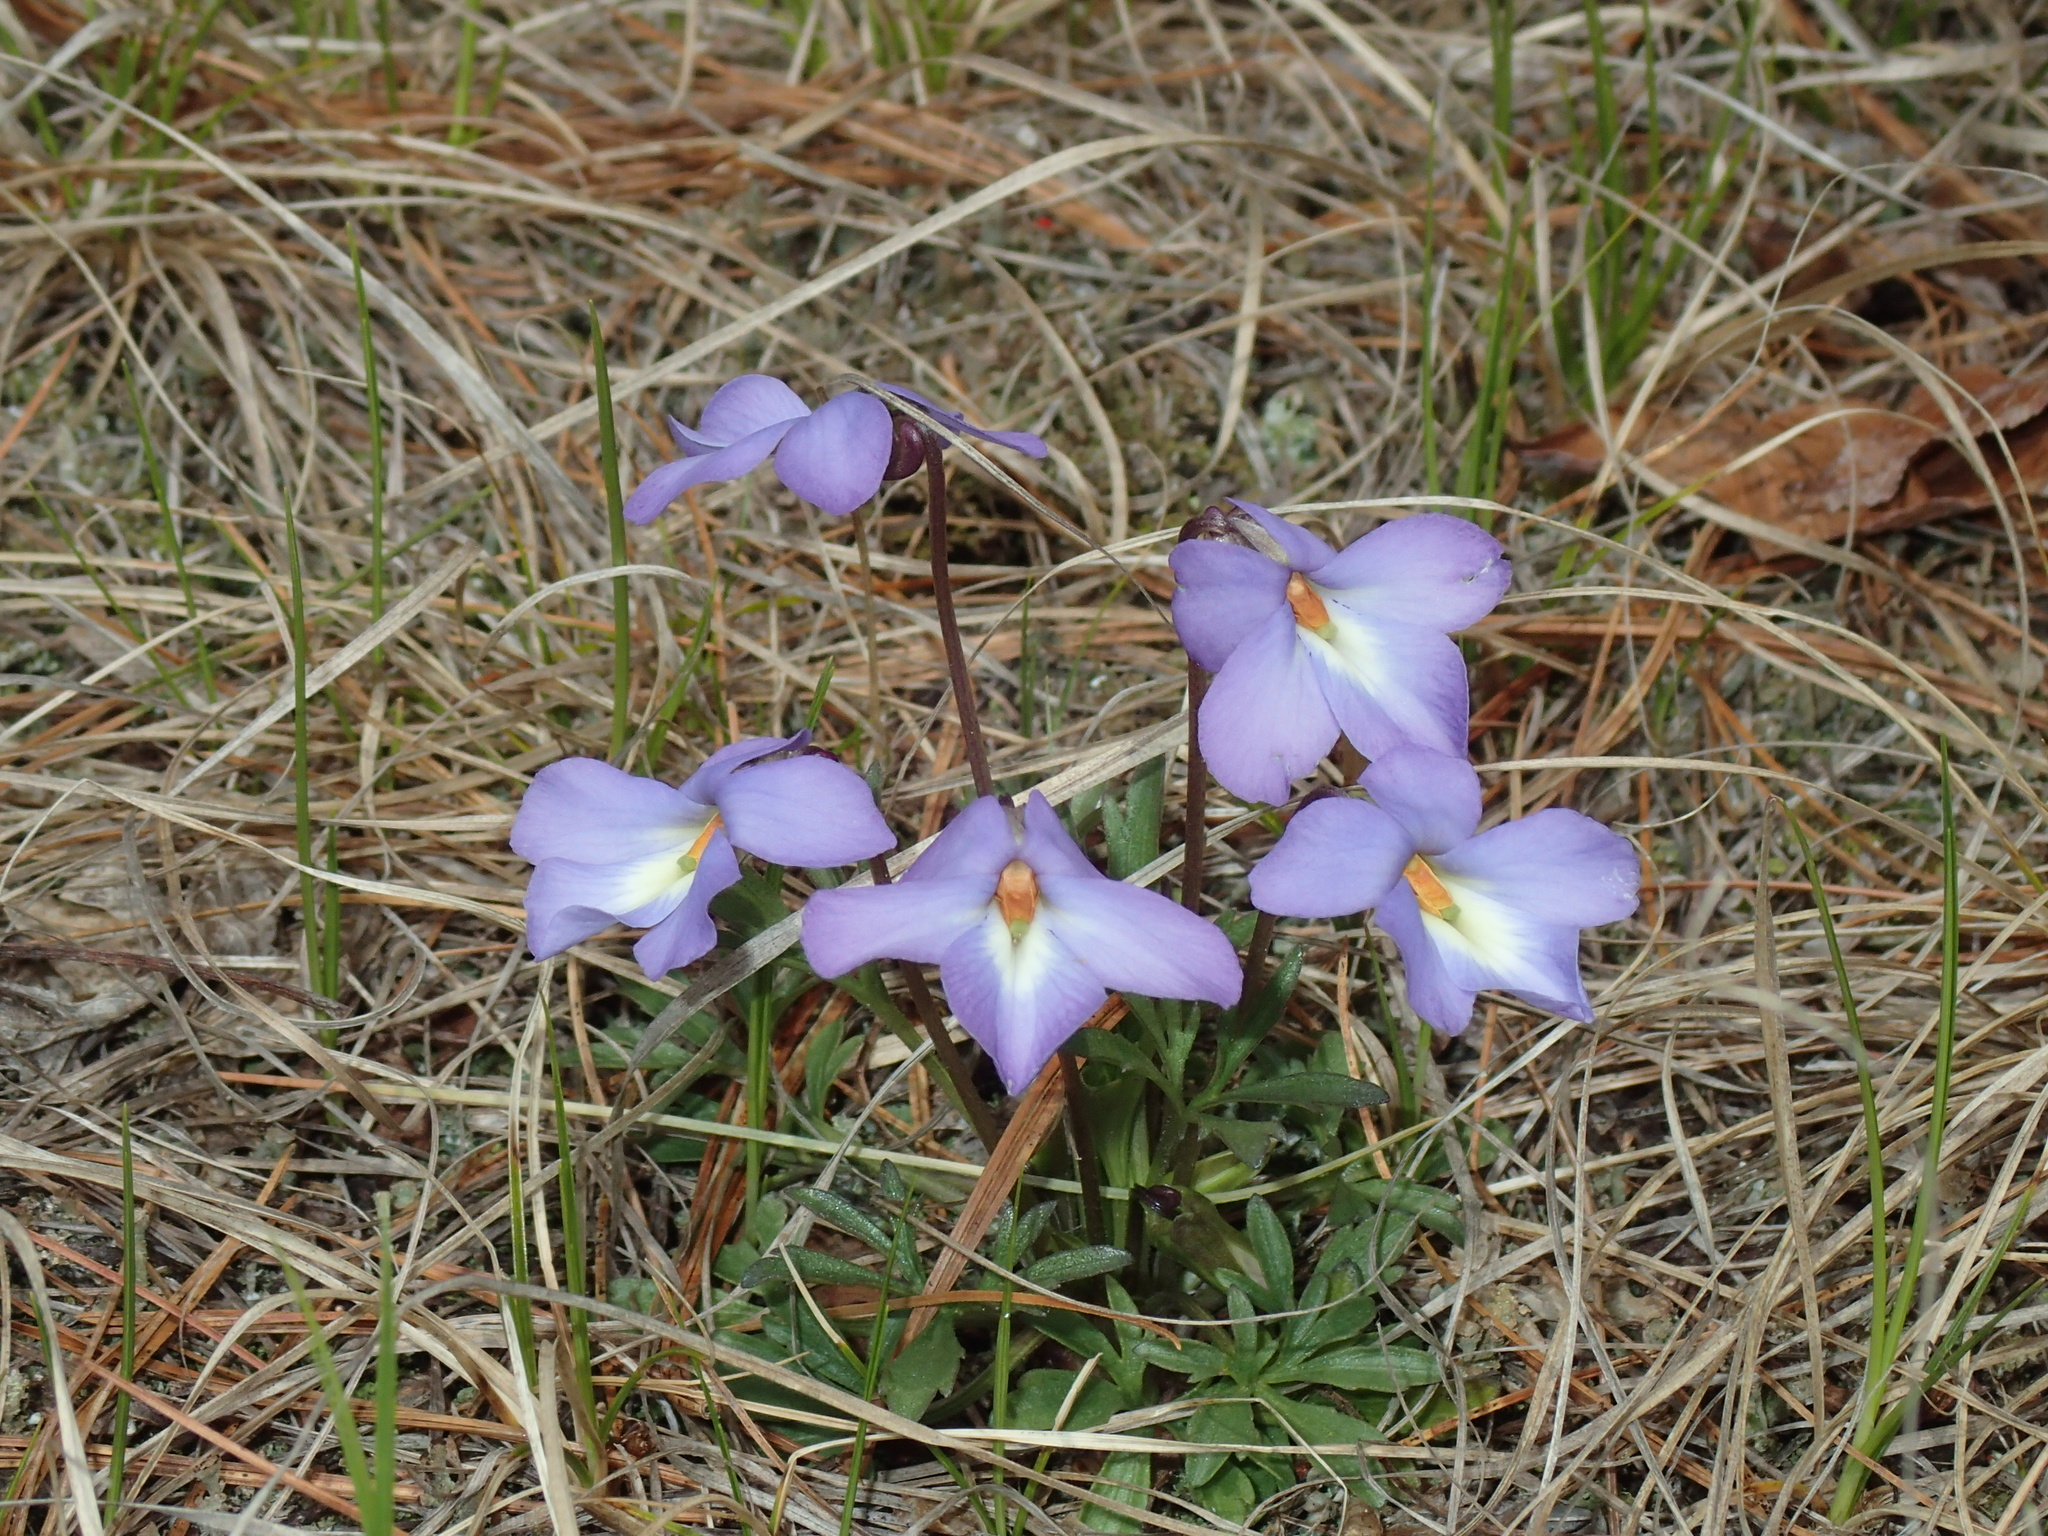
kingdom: Plantae
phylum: Tracheophyta
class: Magnoliopsida
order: Malpighiales
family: Violaceae
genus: Viola
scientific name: Viola pedata
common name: Pansy violet
